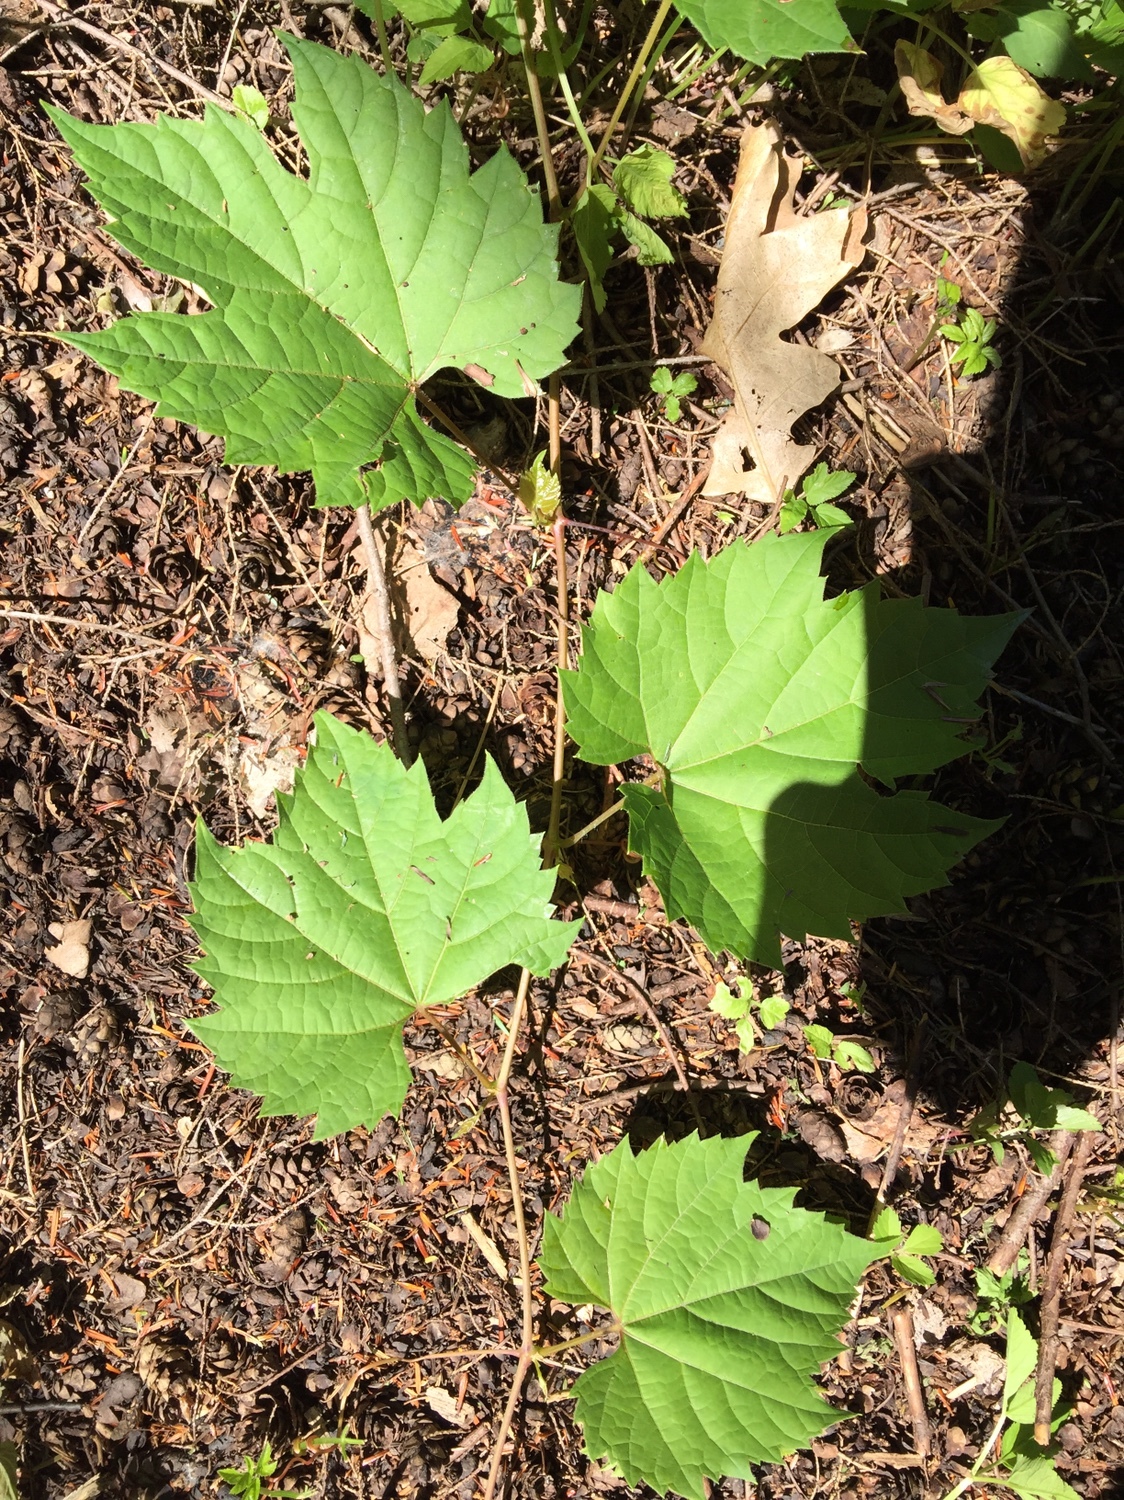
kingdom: Plantae
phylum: Tracheophyta
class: Magnoliopsida
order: Vitales
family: Vitaceae
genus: Vitis
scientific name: Vitis riparia
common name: Frost grape
